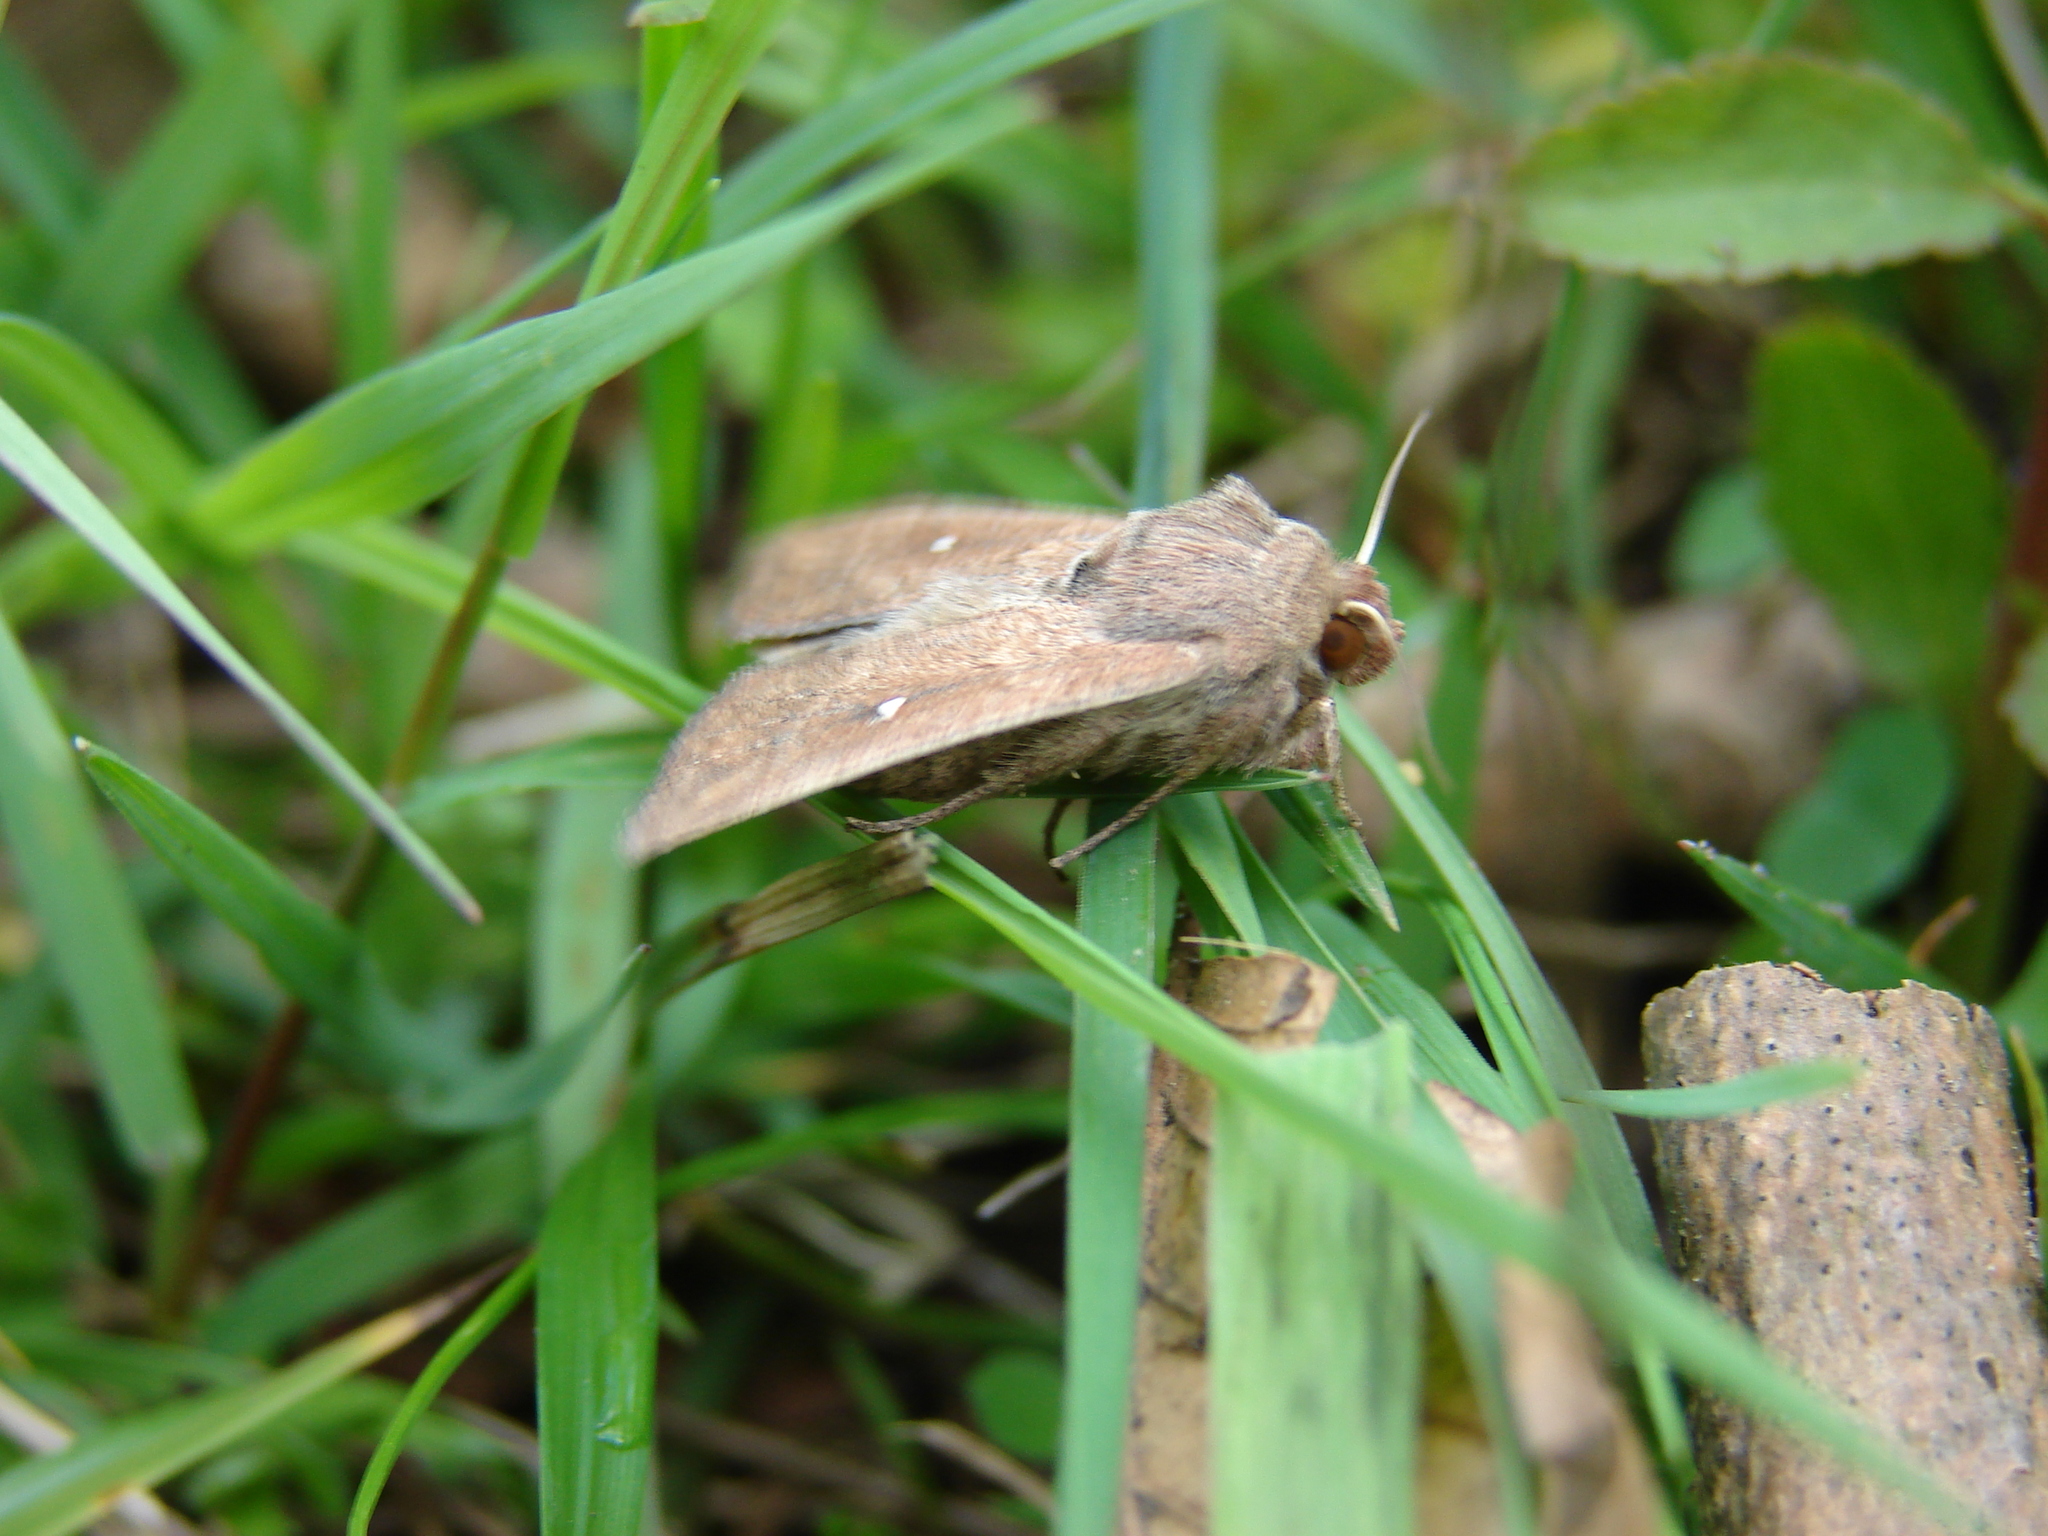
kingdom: Animalia
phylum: Arthropoda
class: Insecta
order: Lepidoptera
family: Noctuidae
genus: Mythimna
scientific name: Mythimna albipuncta
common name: White-point
